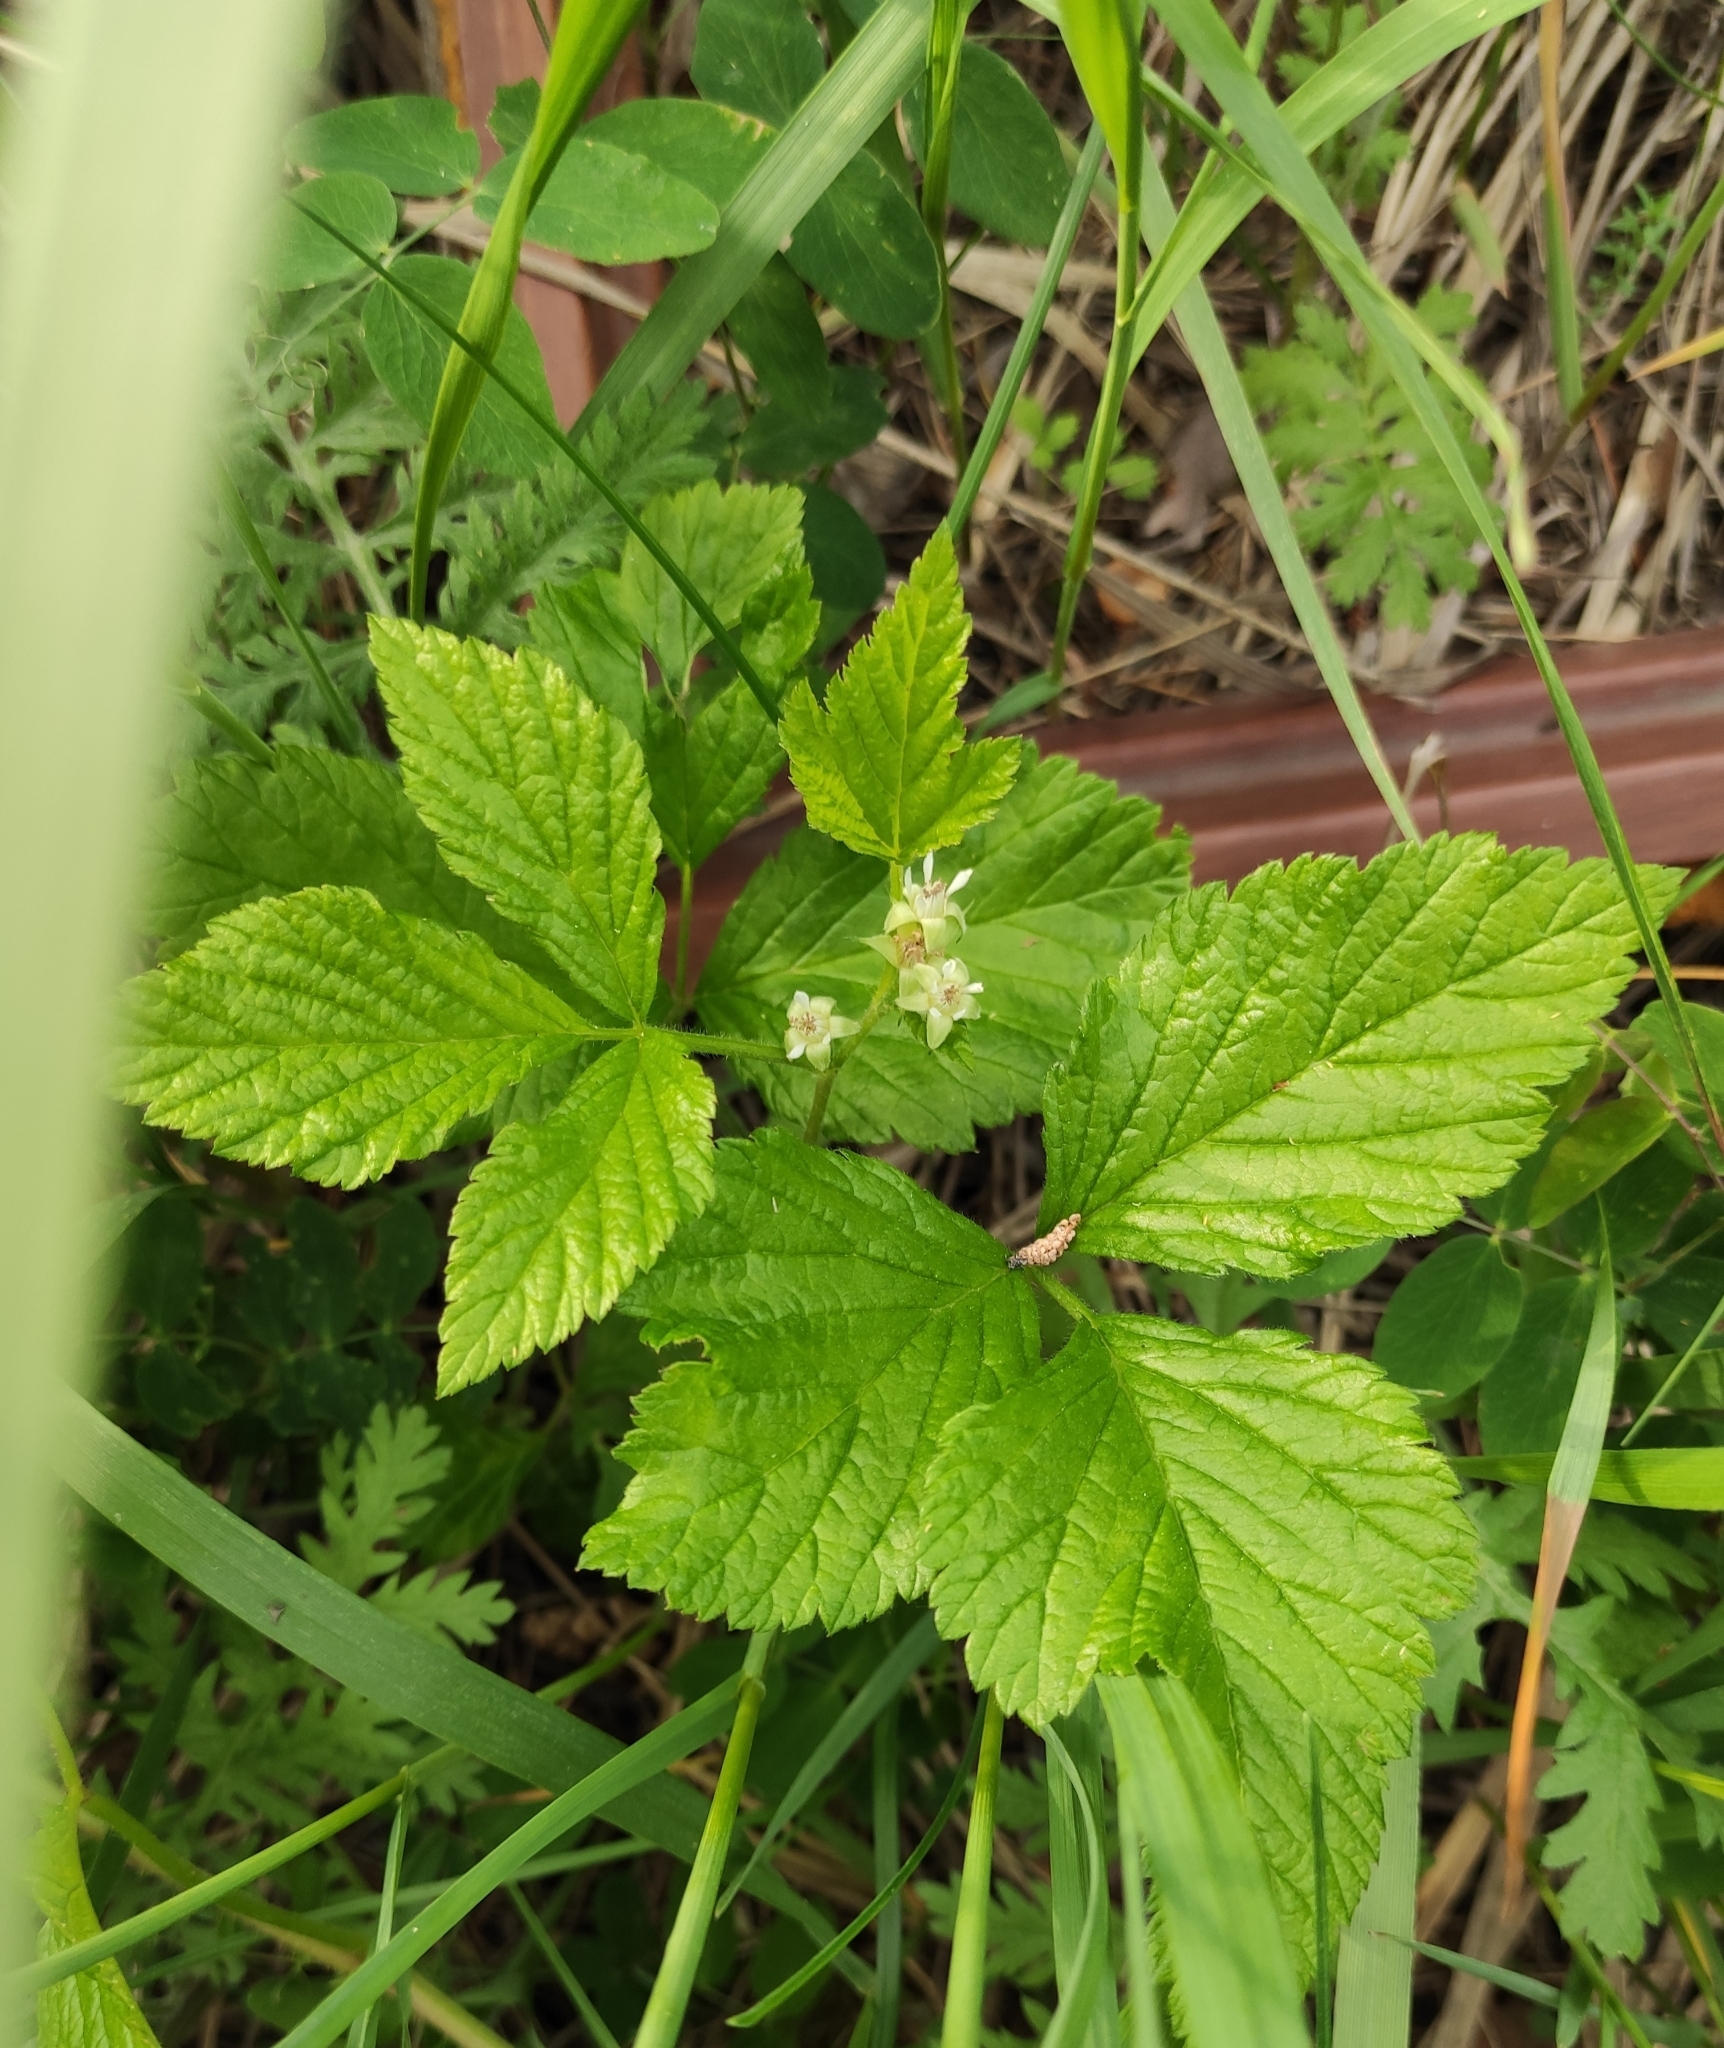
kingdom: Plantae
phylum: Tracheophyta
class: Magnoliopsida
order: Rosales
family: Rosaceae
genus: Rubus
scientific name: Rubus saxatilis
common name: Stone bramble
